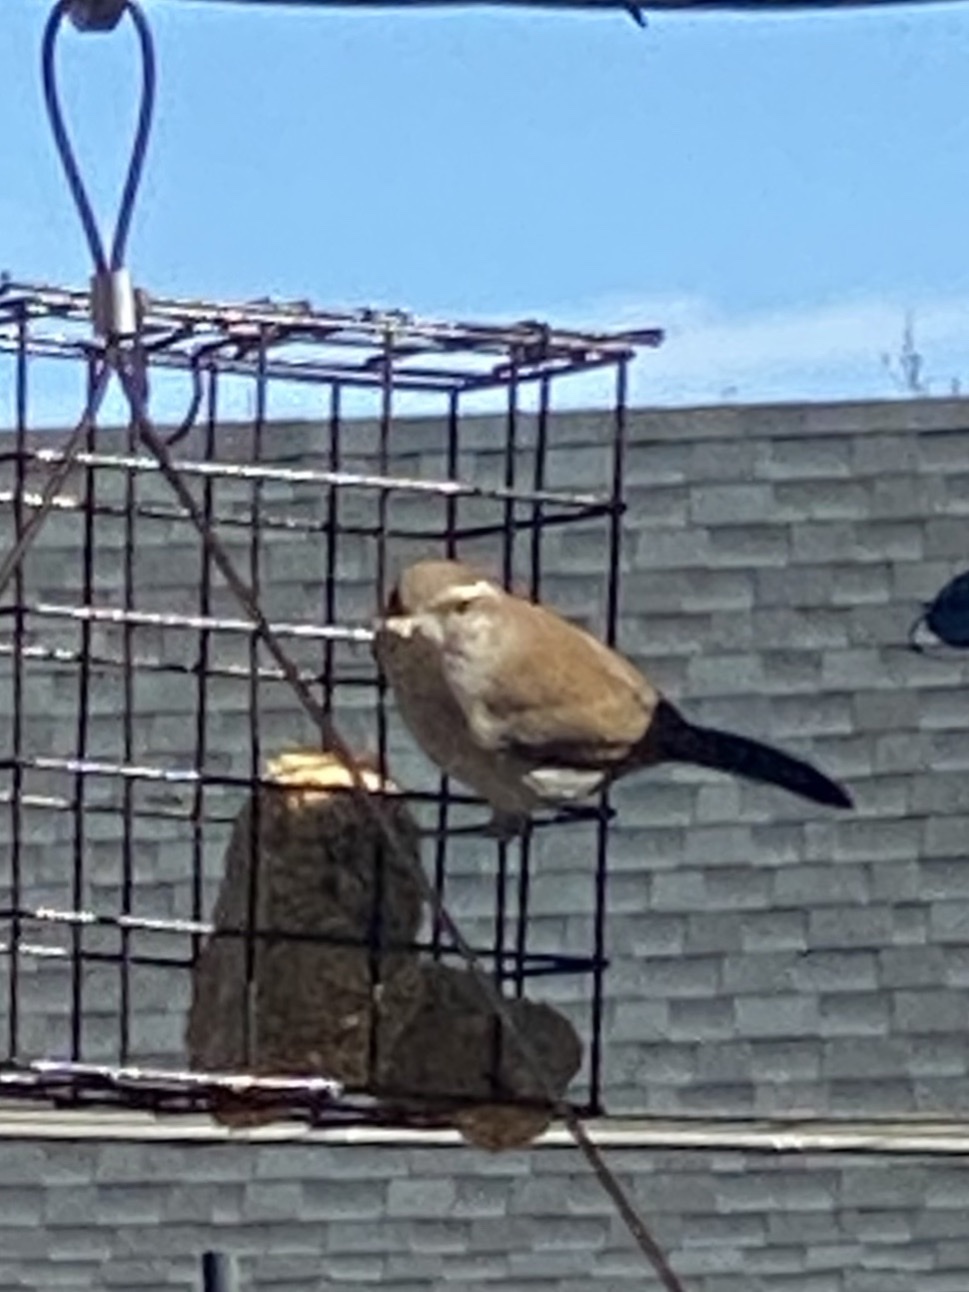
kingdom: Animalia
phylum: Chordata
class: Aves
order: Passeriformes
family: Troglodytidae
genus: Thryomanes
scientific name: Thryomanes bewickii
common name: Bewick's wren
